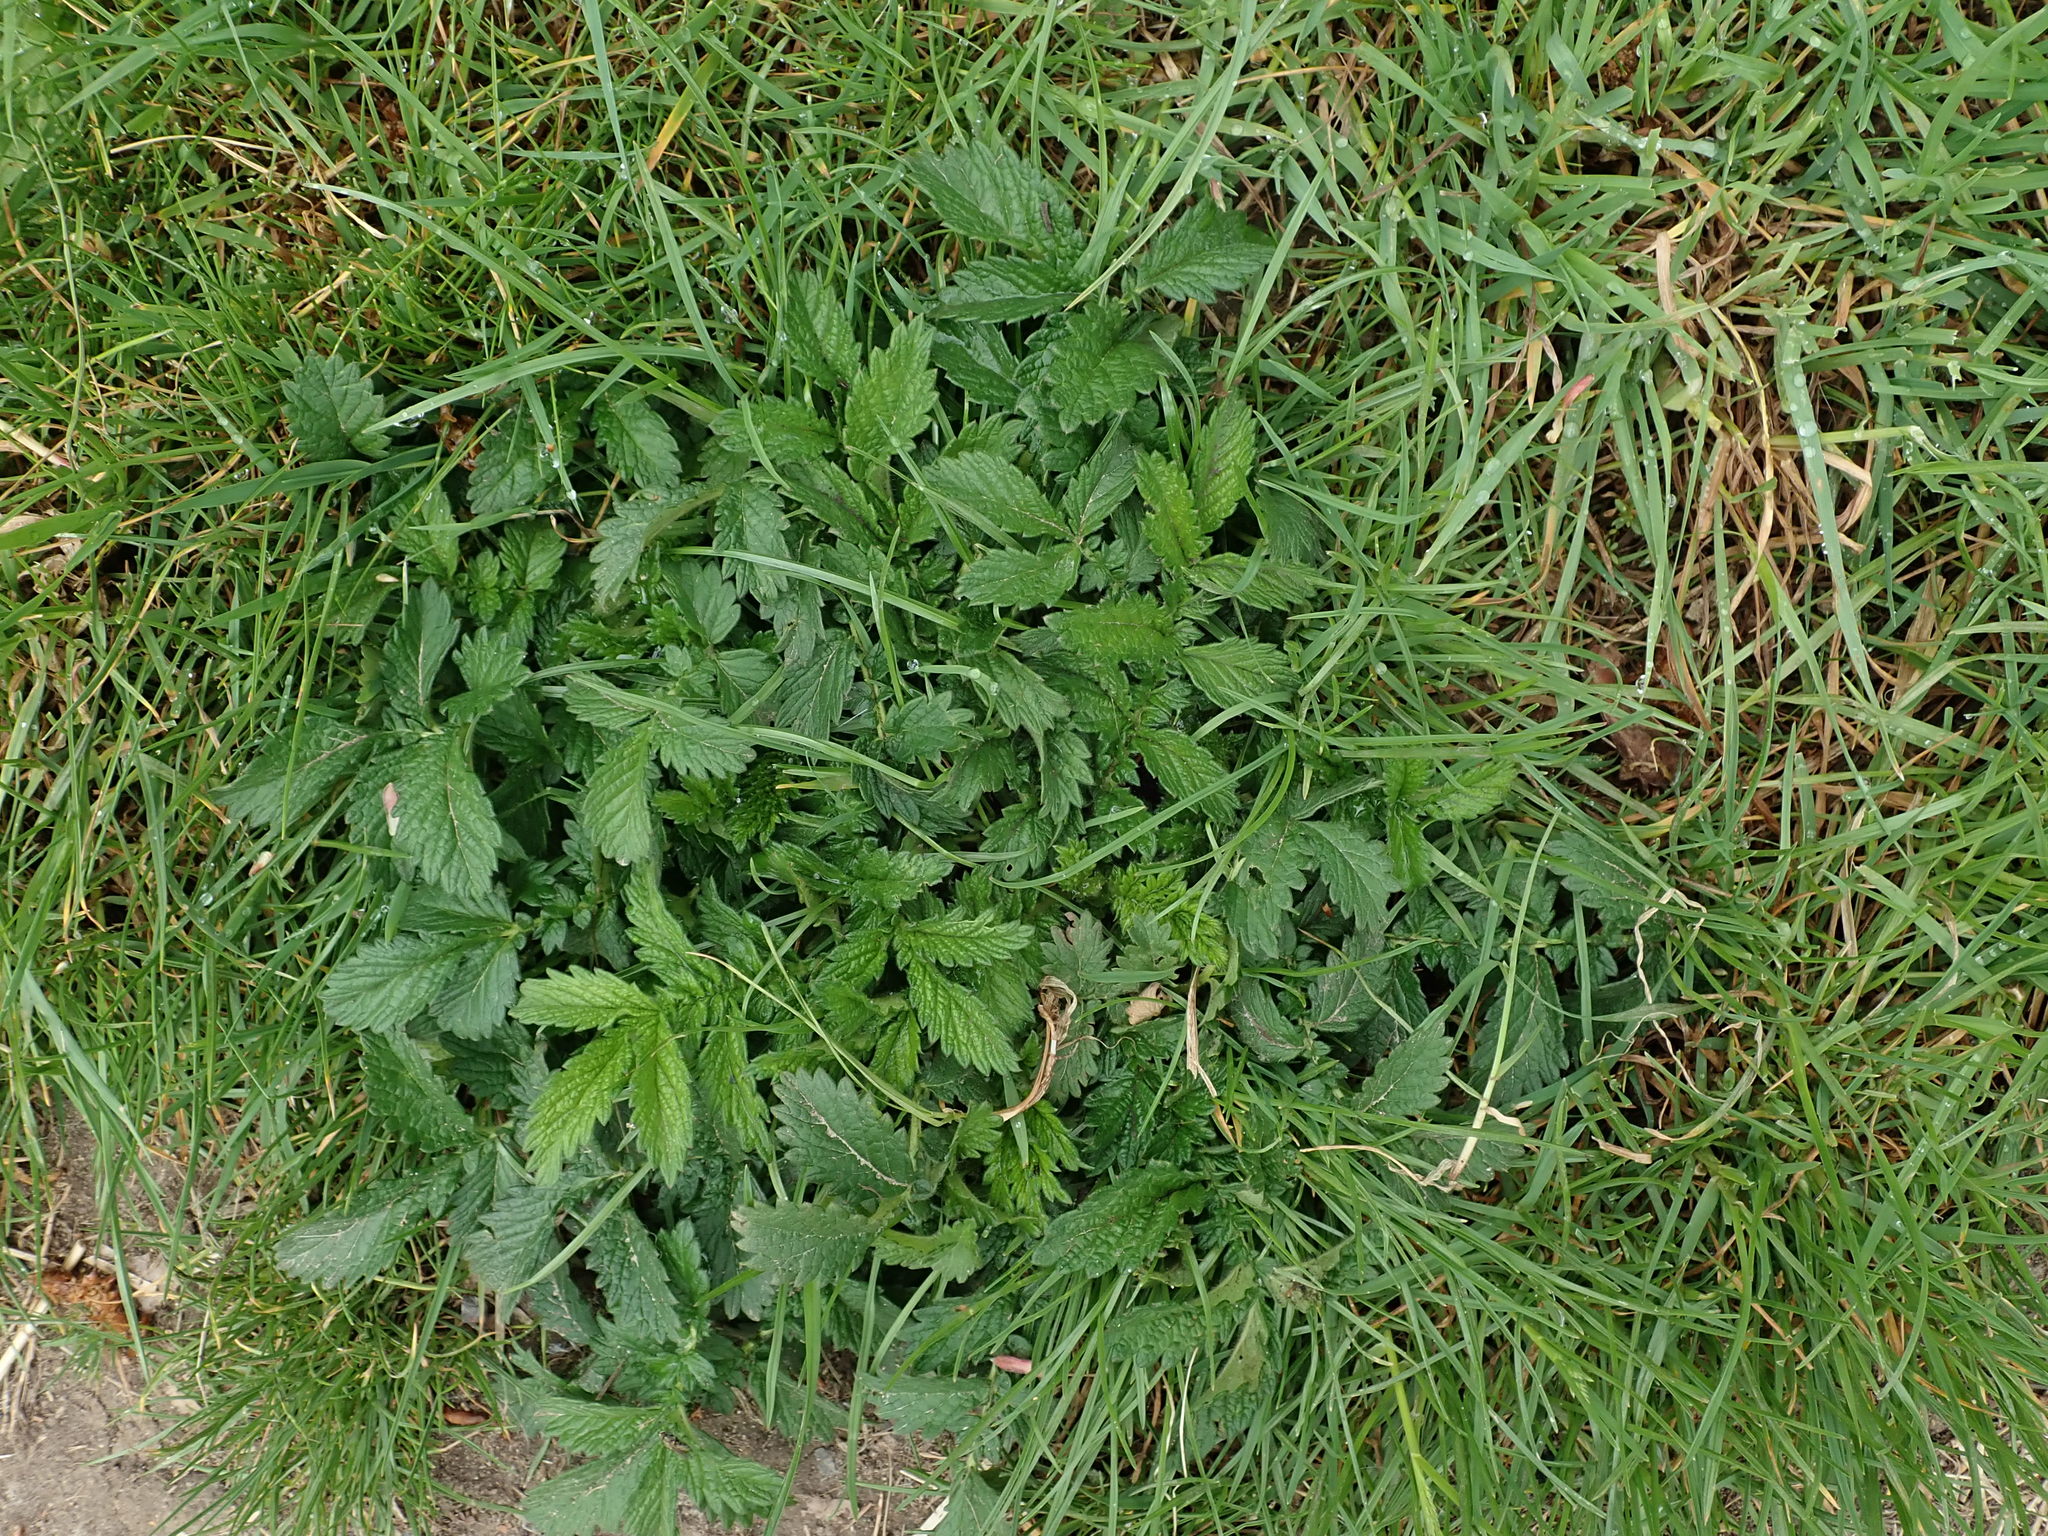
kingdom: Plantae
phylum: Tracheophyta
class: Magnoliopsida
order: Rosales
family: Rosaceae
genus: Agrimonia
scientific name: Agrimonia eupatoria
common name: Agrimony
